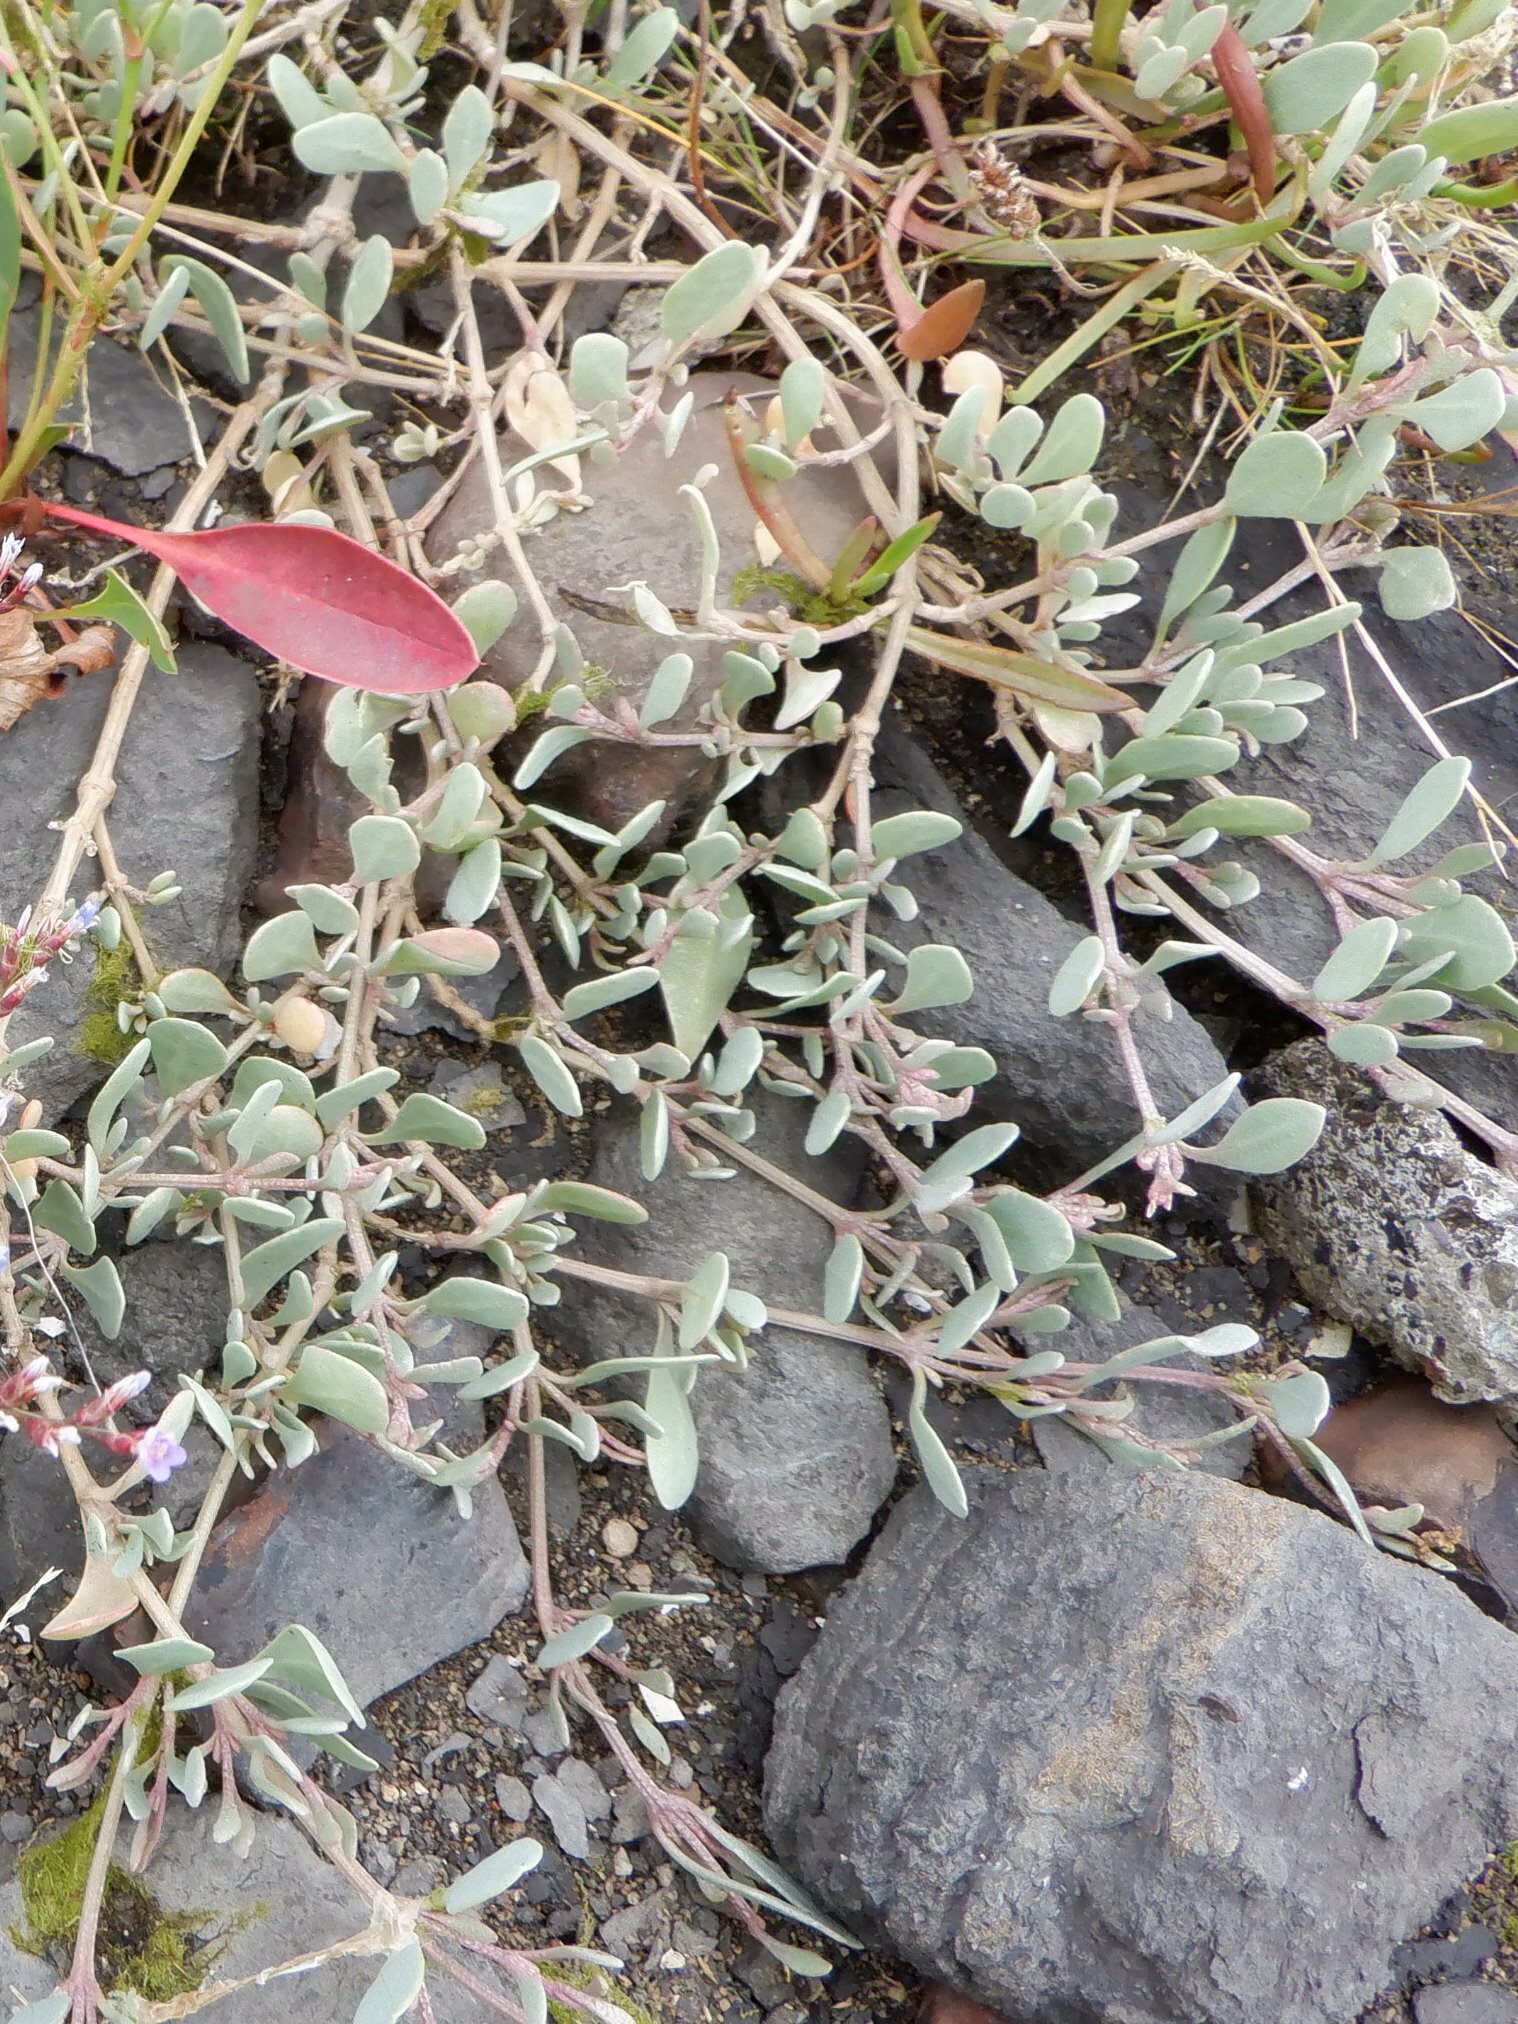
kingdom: Plantae
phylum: Tracheophyta
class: Magnoliopsida
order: Caryophyllales
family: Amaranthaceae
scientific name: Amaranthaceae
